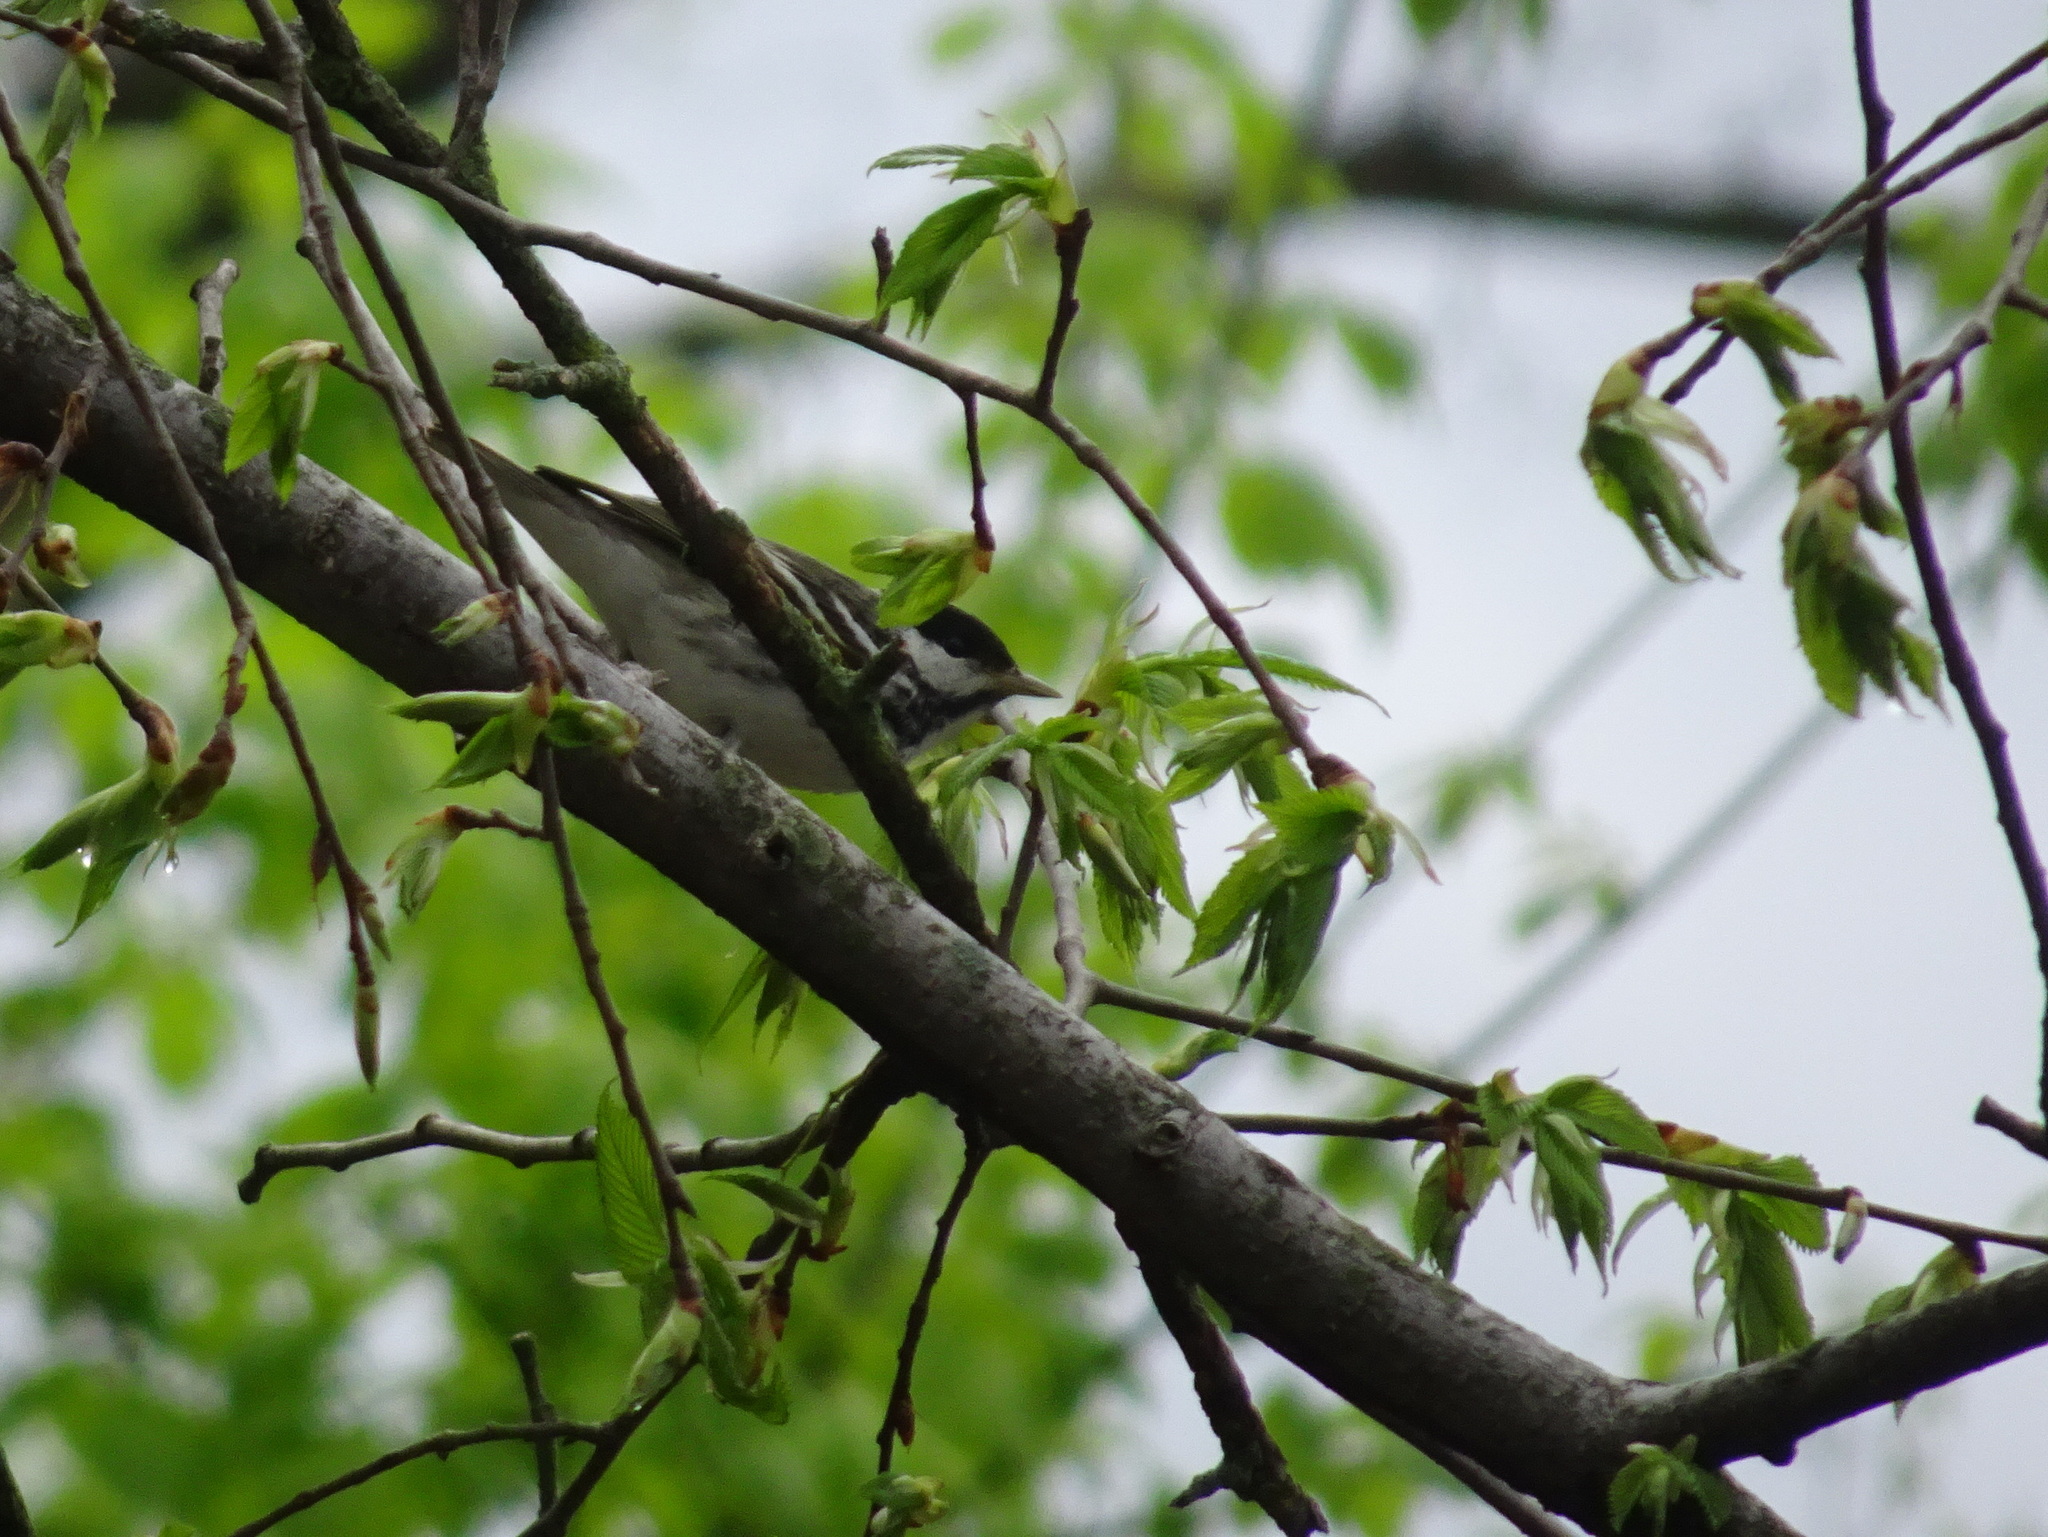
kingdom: Animalia
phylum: Chordata
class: Aves
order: Passeriformes
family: Parulidae
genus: Setophaga
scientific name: Setophaga striata
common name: Blackpoll warbler
